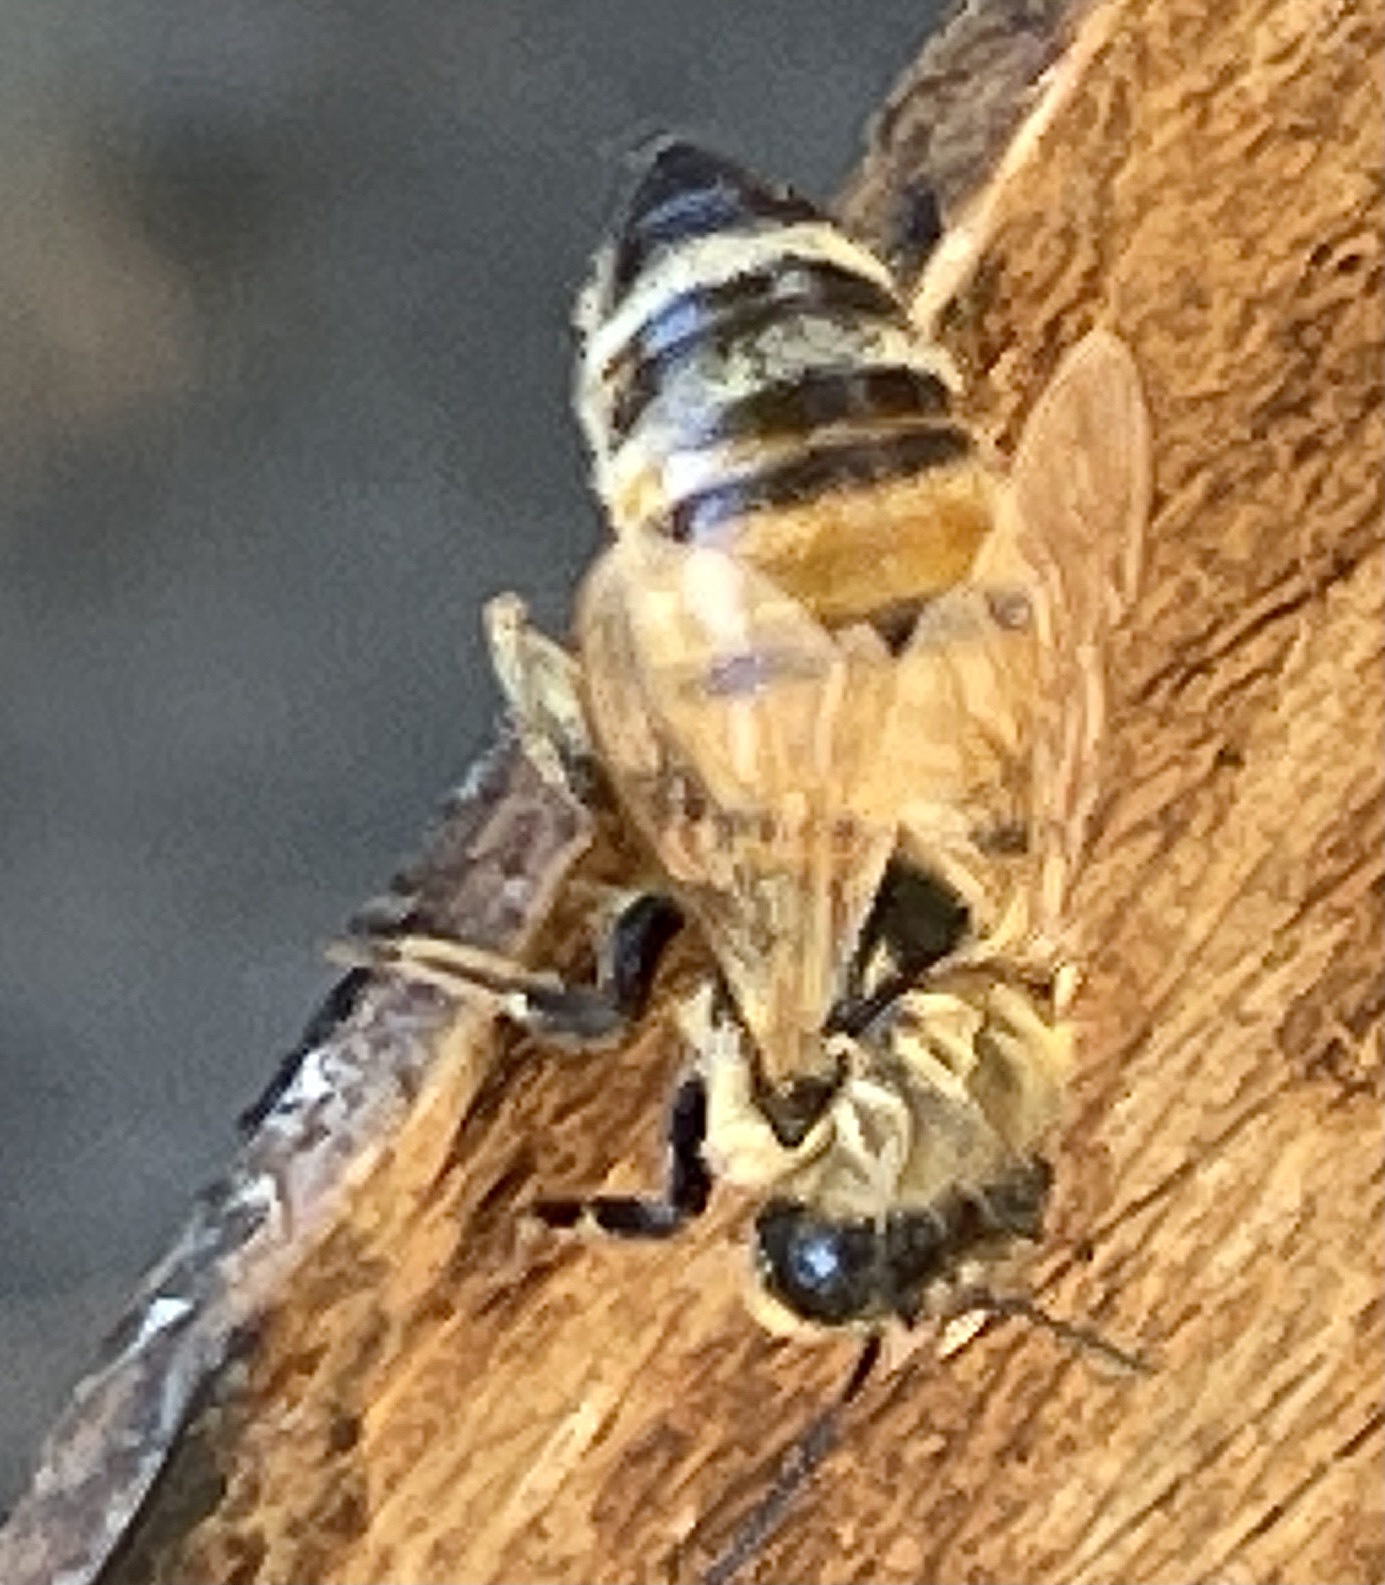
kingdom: Animalia
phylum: Arthropoda
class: Insecta
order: Hymenoptera
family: Apidae
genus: Apis
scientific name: Apis mellifera
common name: Honey bee
